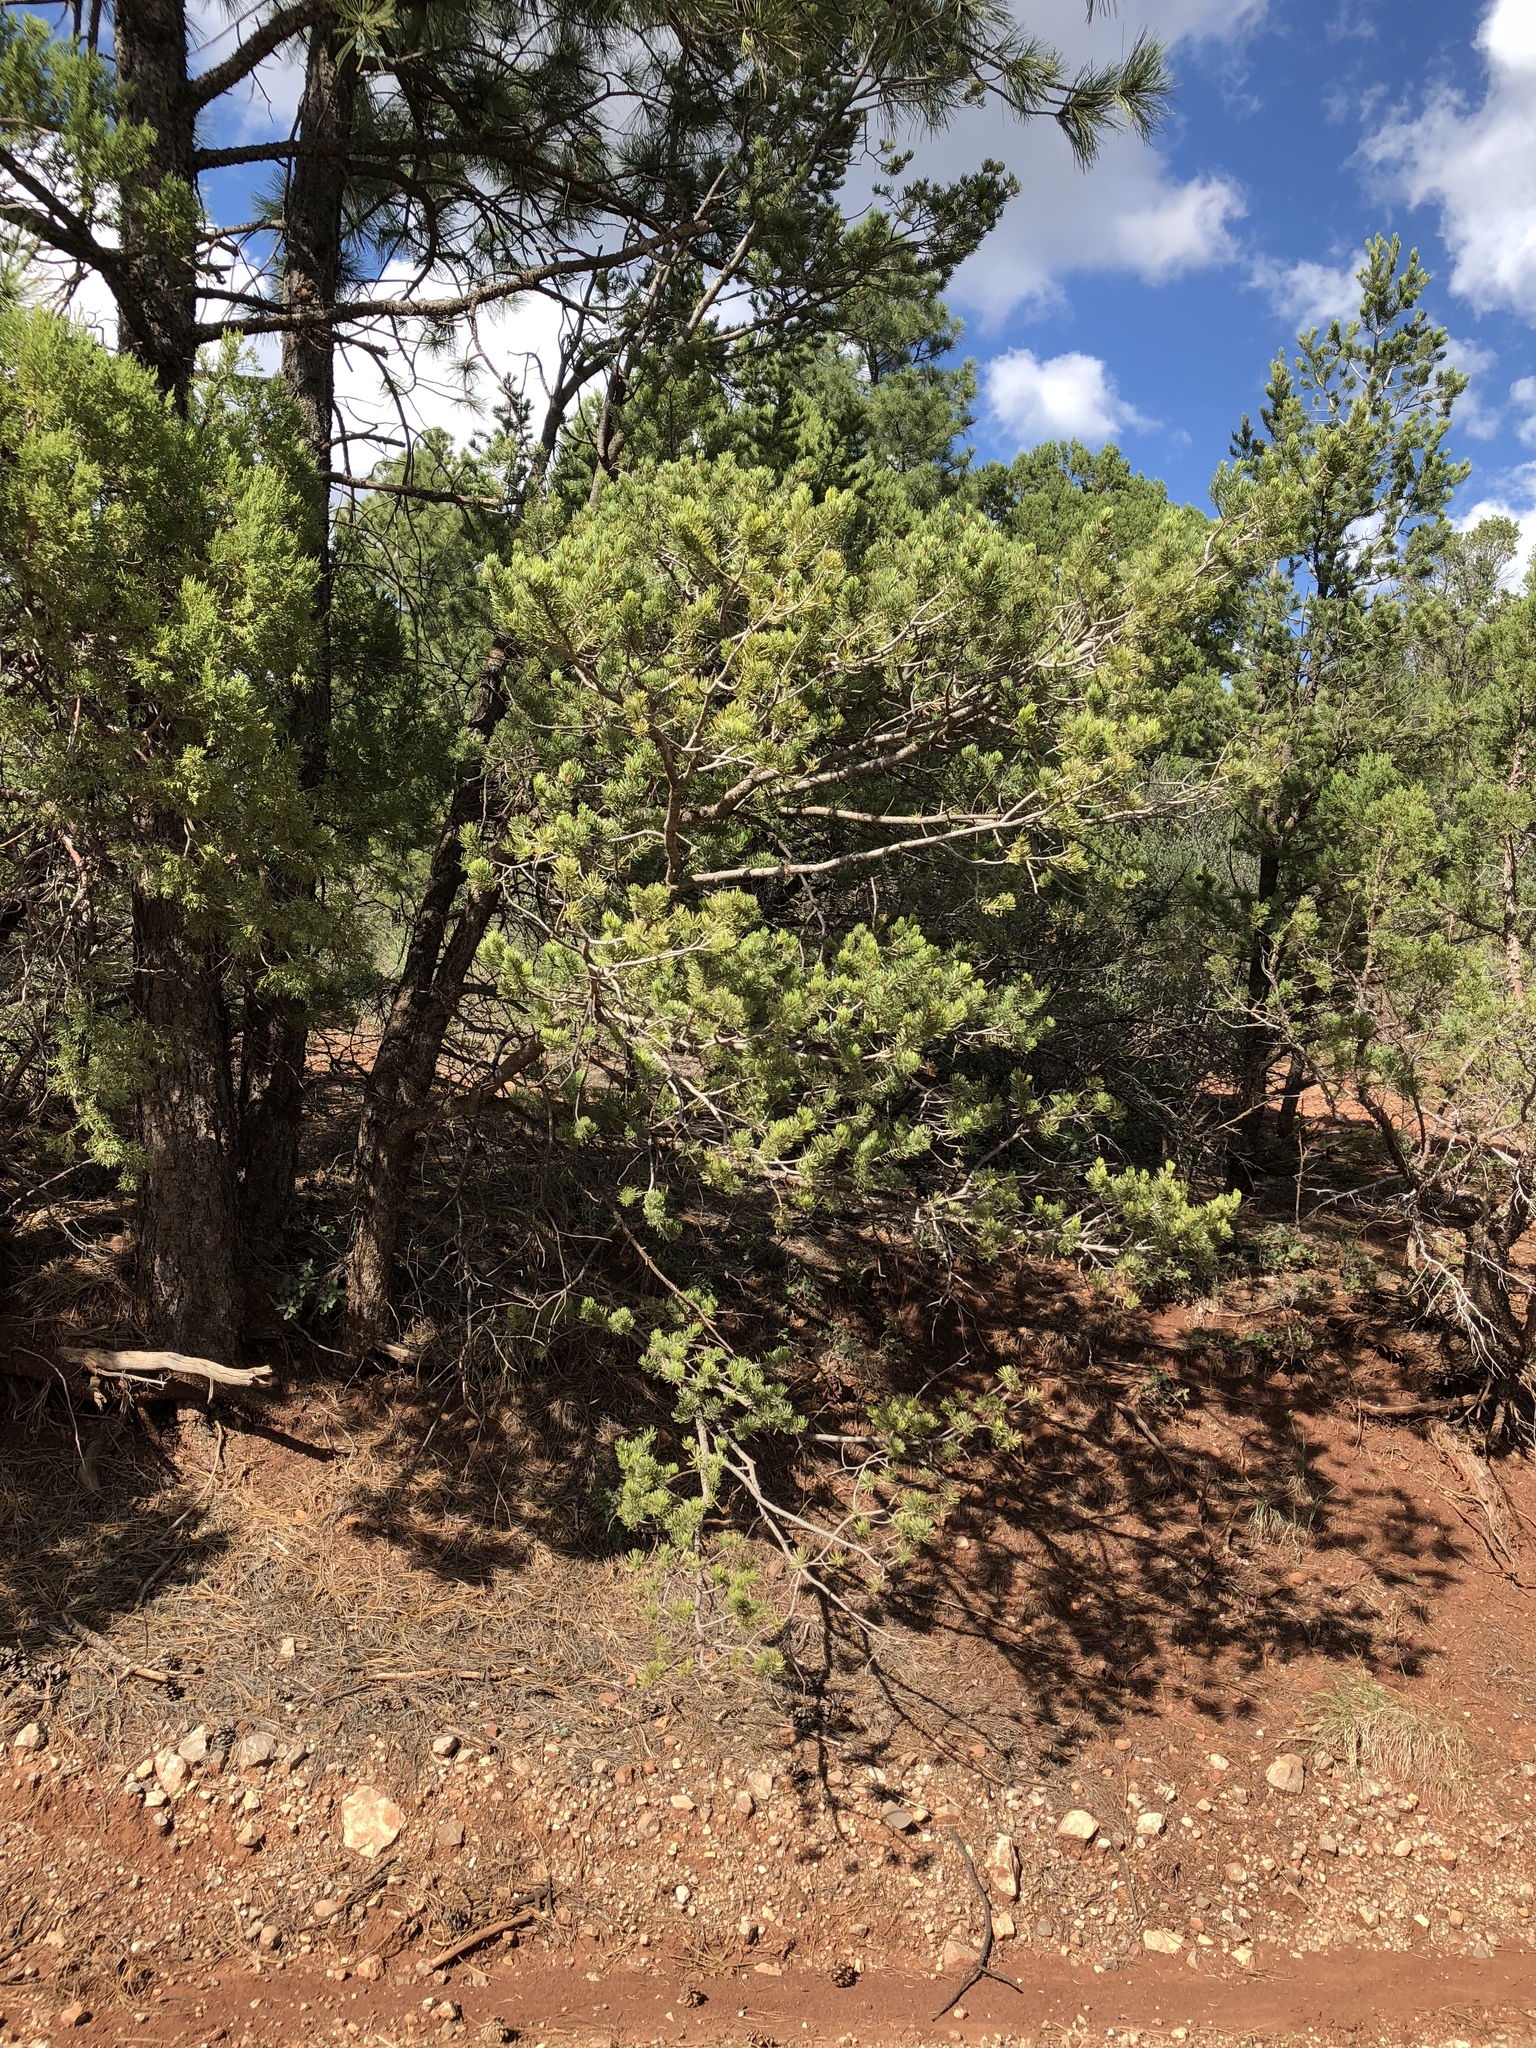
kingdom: Plantae
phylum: Tracheophyta
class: Pinopsida
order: Pinales
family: Pinaceae
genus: Pinus
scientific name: Pinus edulis
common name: Colorado pinyon
